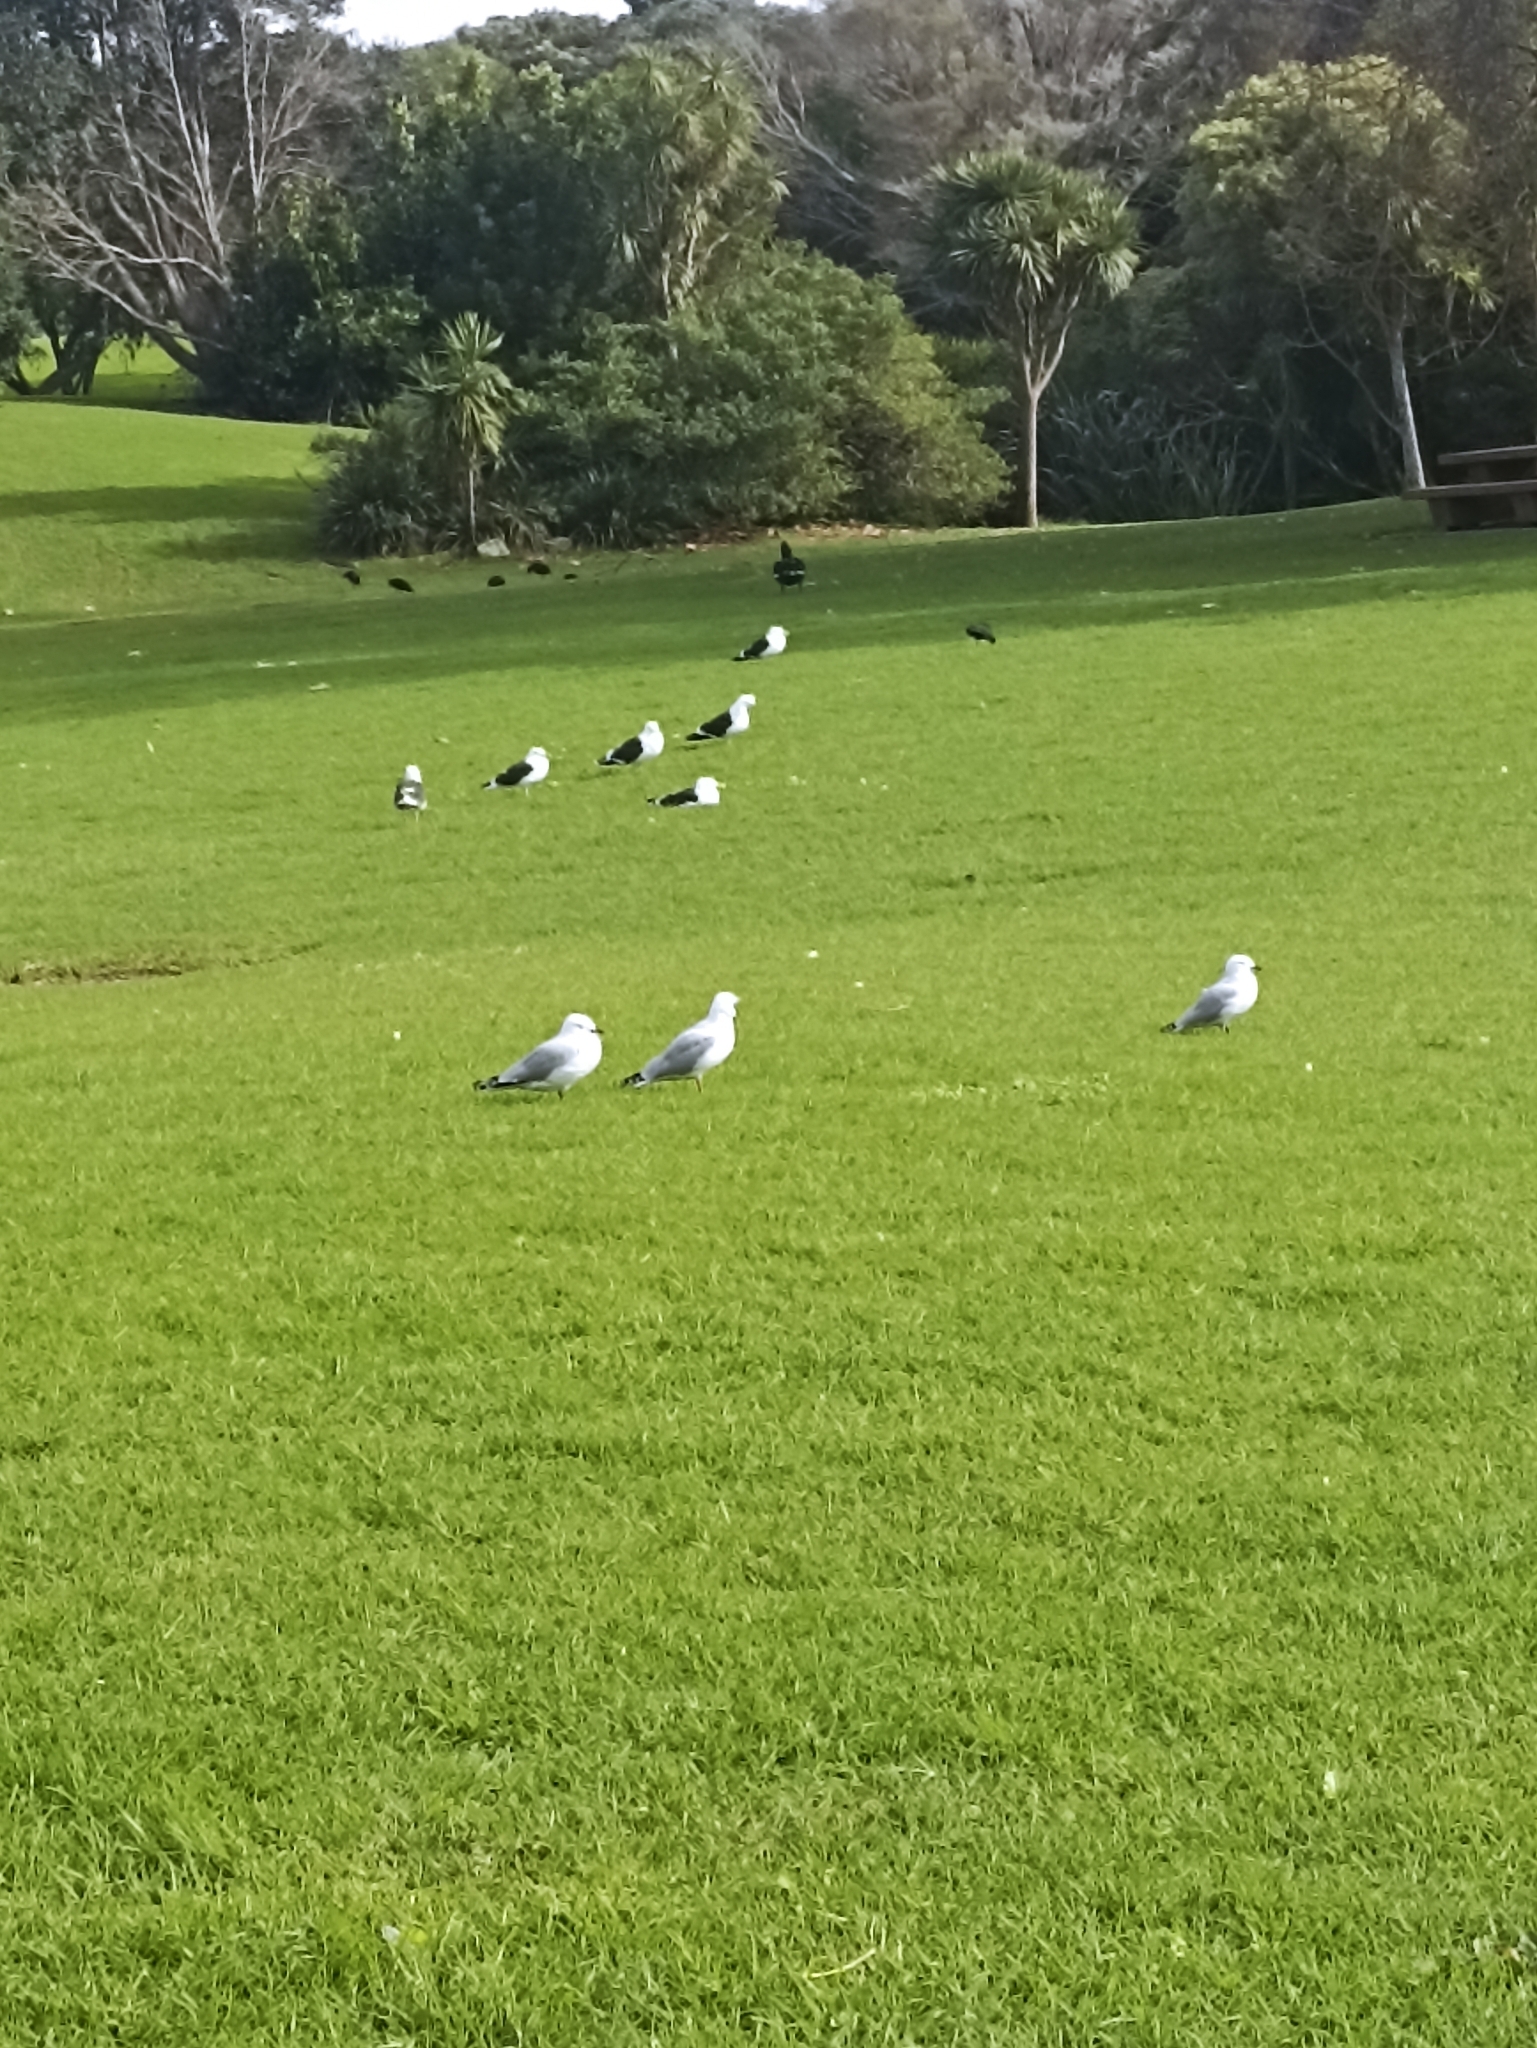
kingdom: Animalia
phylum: Chordata
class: Aves
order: Charadriiformes
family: Laridae
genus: Chroicocephalus
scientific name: Chroicocephalus novaehollandiae
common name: Silver gull
